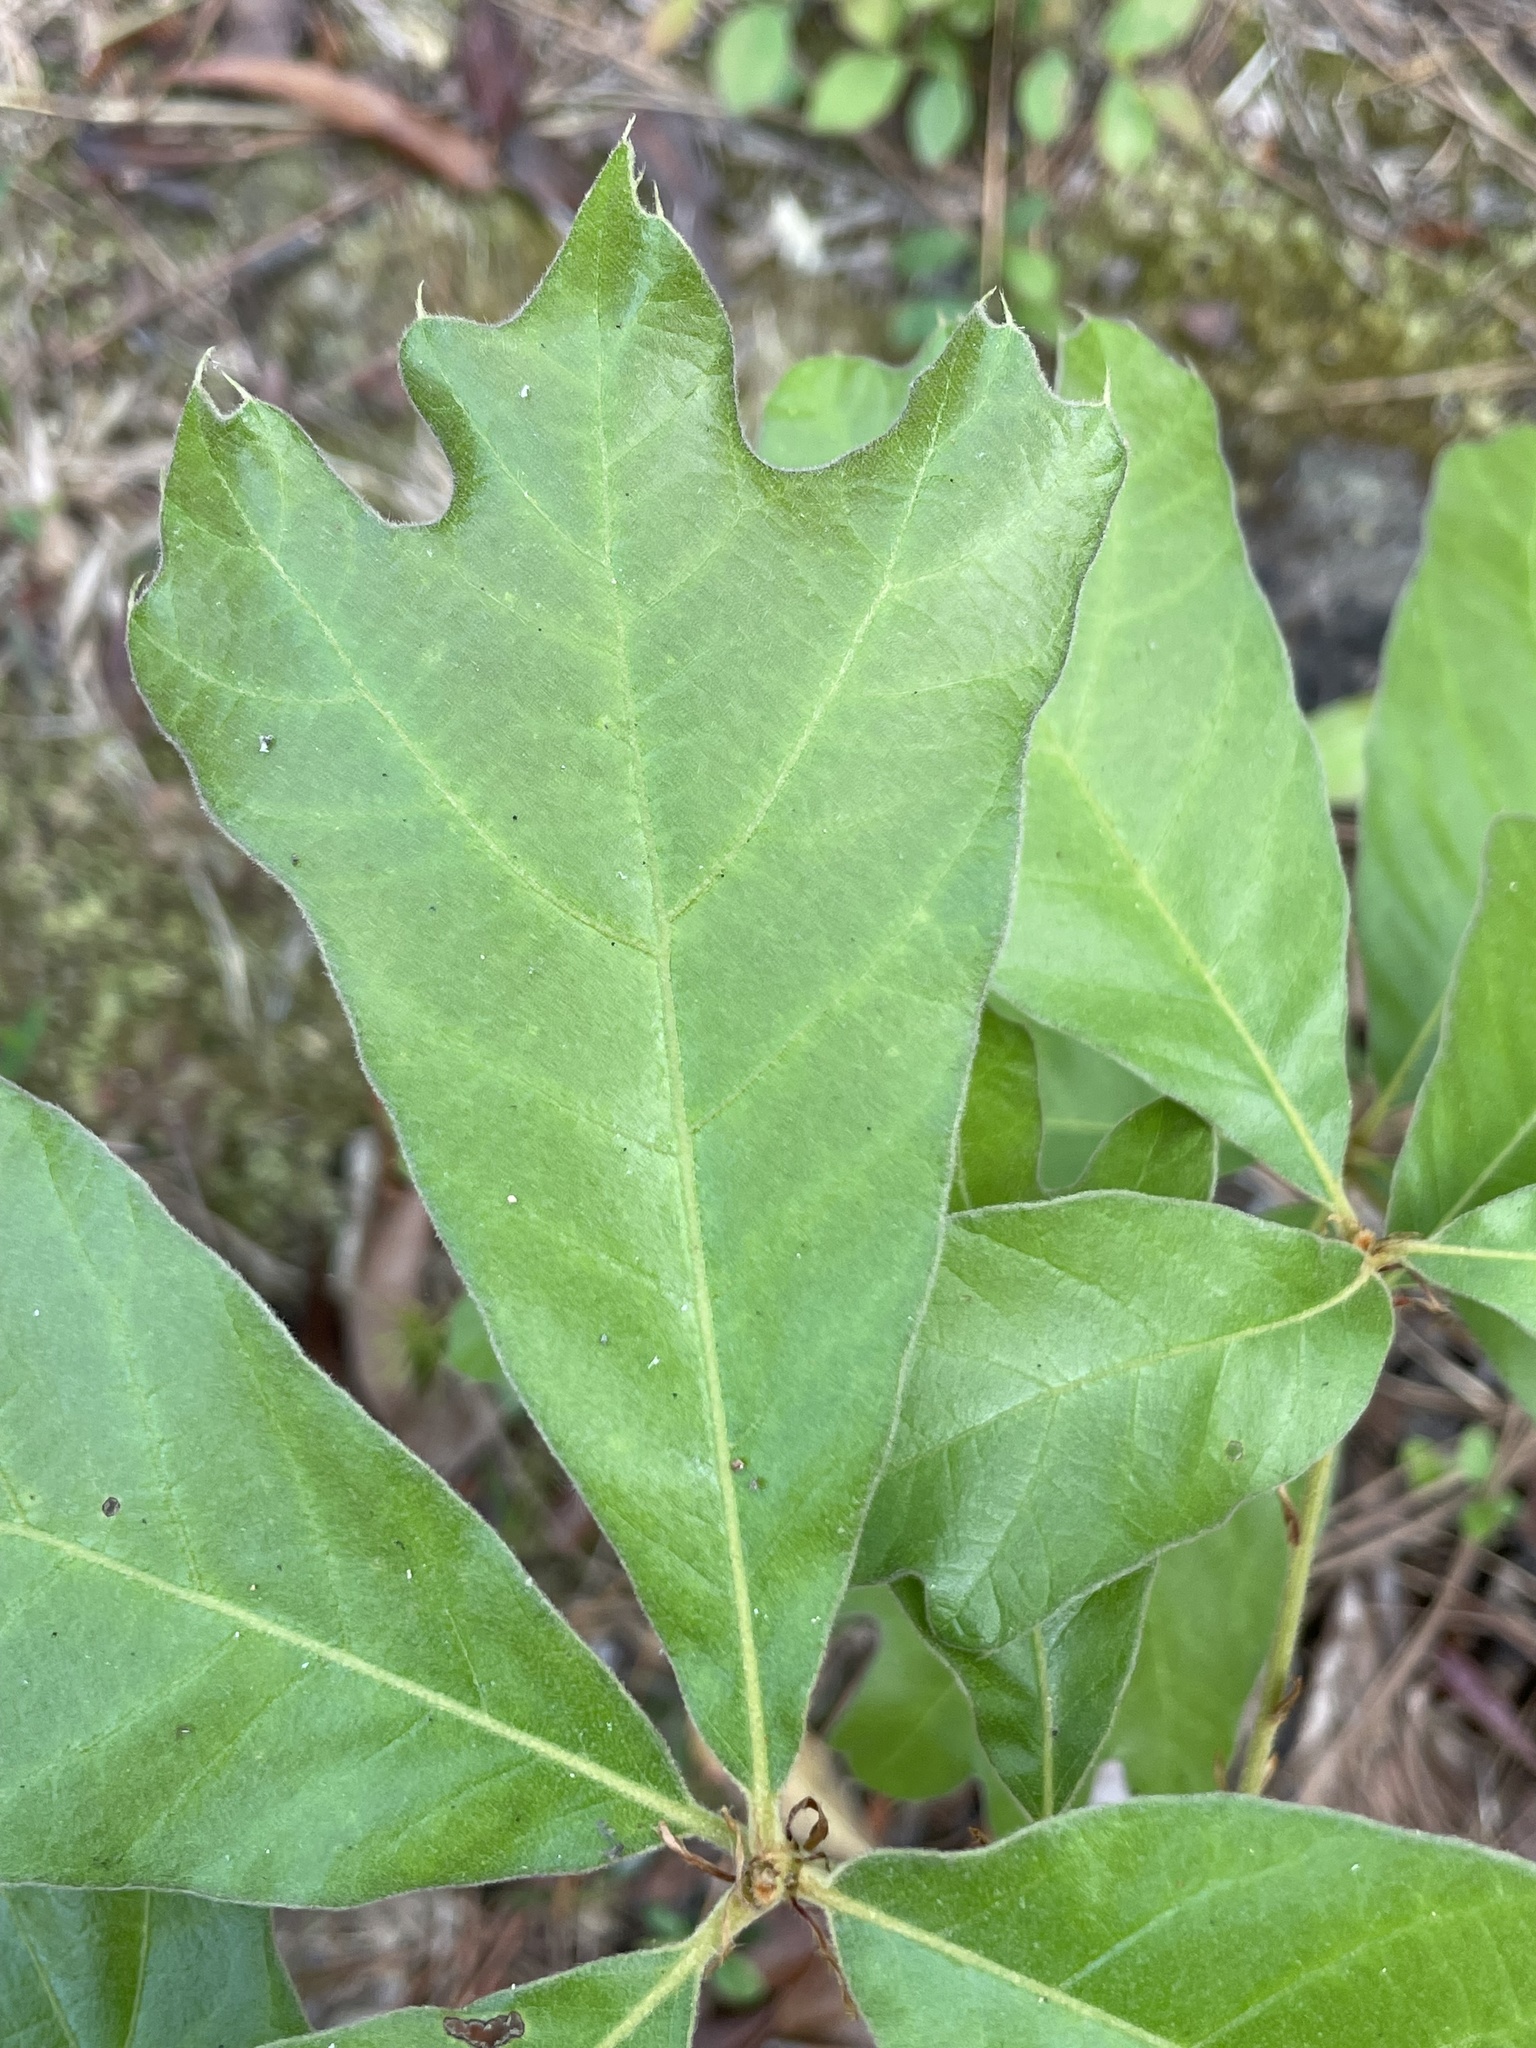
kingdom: Plantae
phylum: Tracheophyta
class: Magnoliopsida
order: Fagales
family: Fagaceae
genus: Quercus
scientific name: Quercus falcata
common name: Southern red oak
